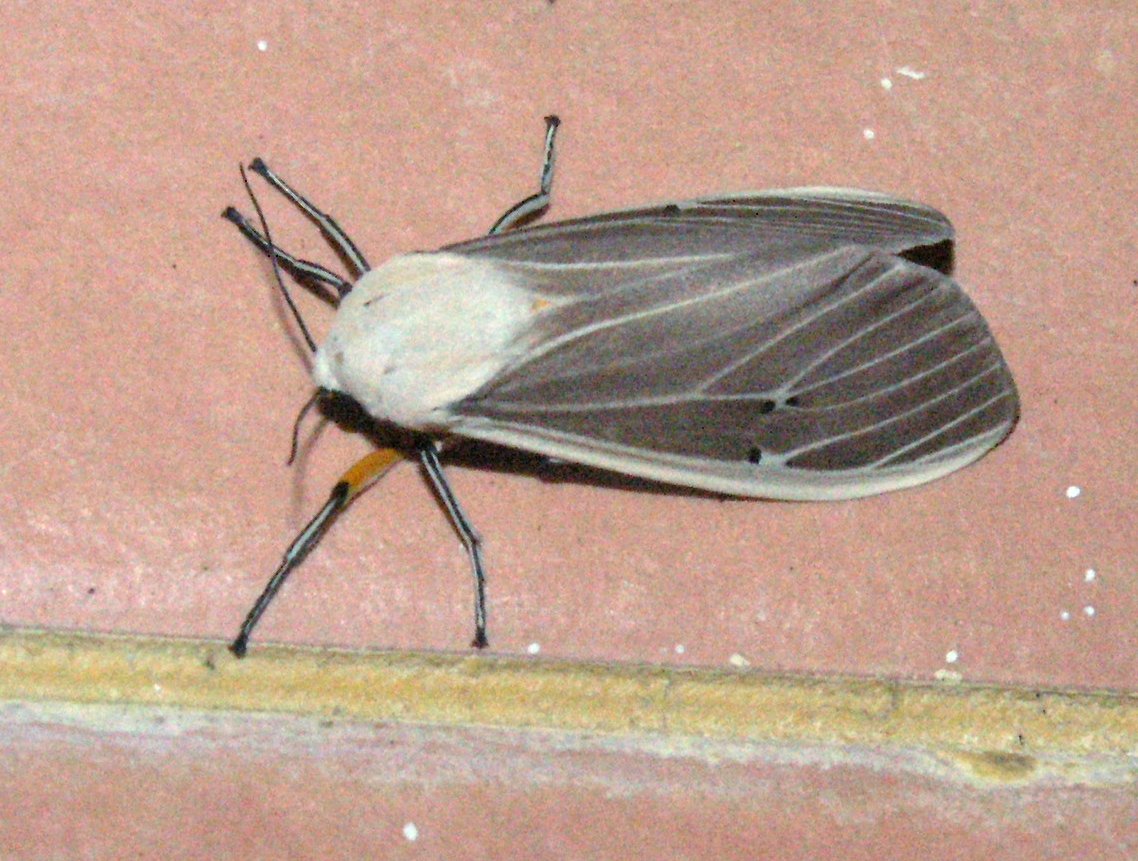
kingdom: Animalia
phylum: Arthropoda
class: Insecta
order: Lepidoptera
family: Erebidae
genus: Creatonotos
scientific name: Creatonotos transiens
